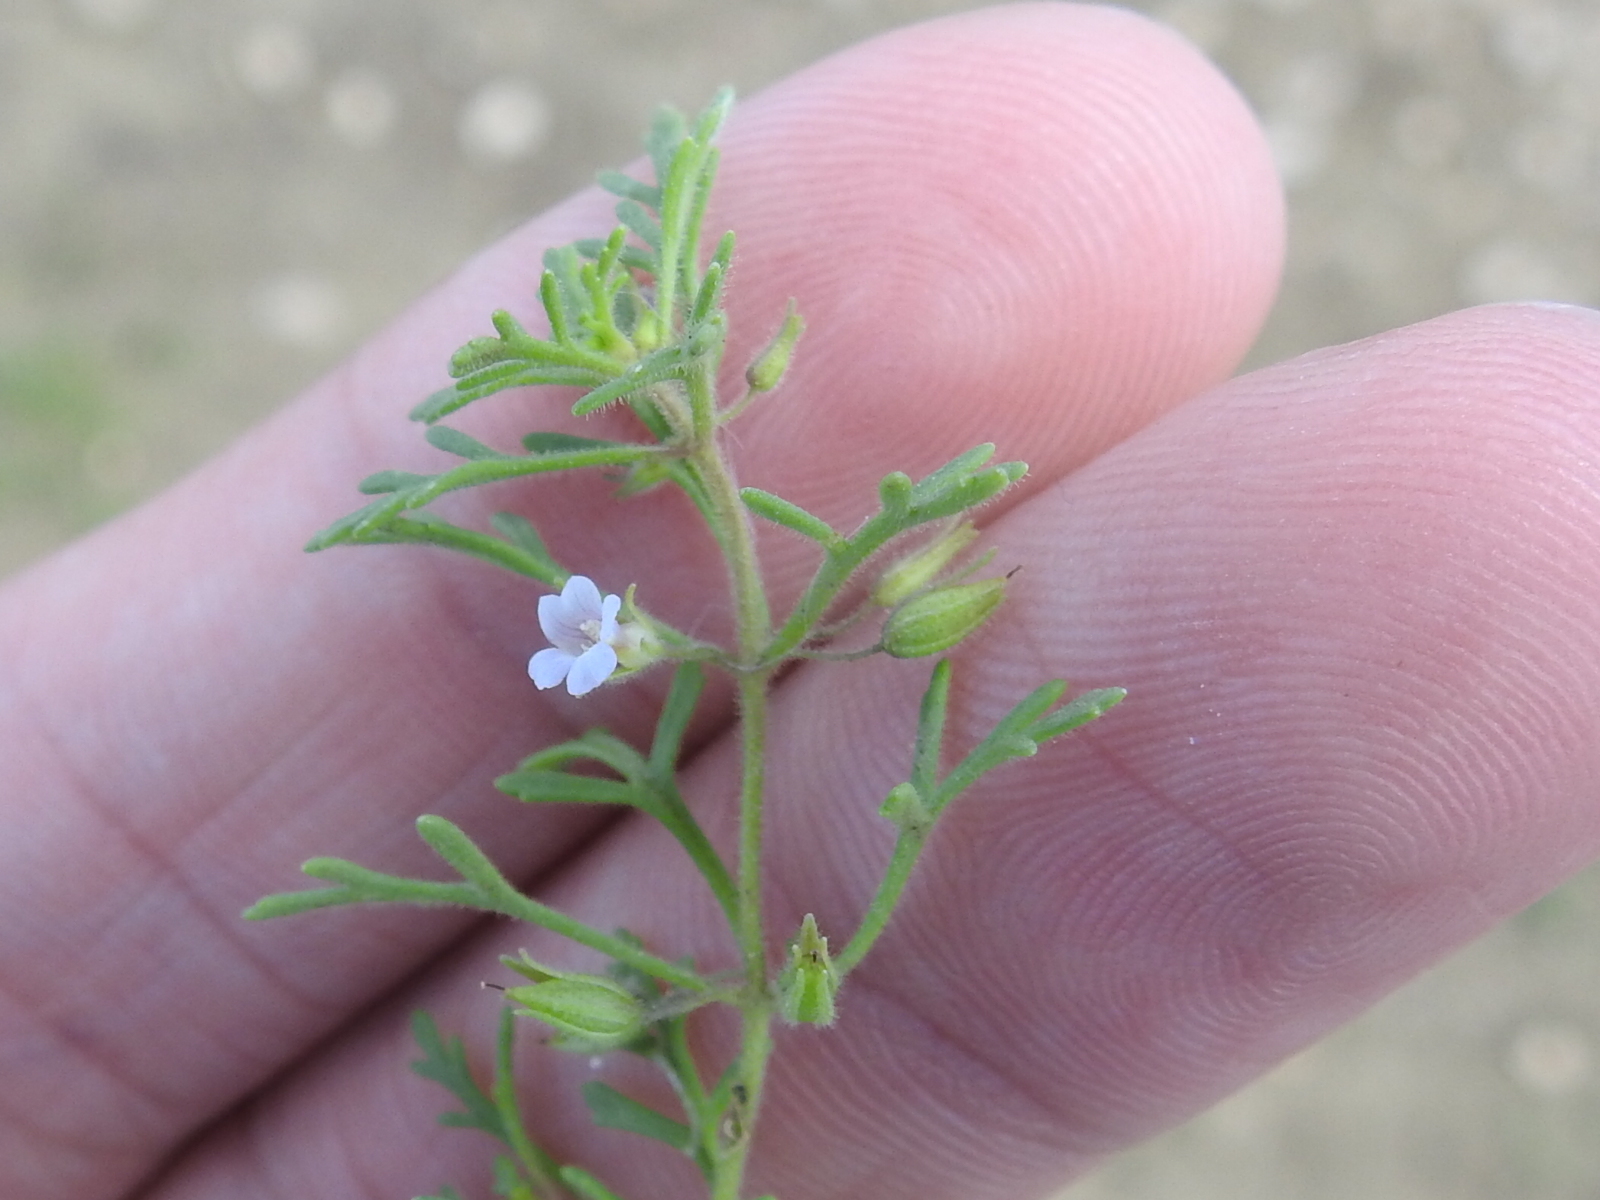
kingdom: Plantae
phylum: Tracheophyta
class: Magnoliopsida
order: Lamiales
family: Plantaginaceae
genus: Leucospora
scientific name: Leucospora multifida
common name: Narrow-leaf paleseed
